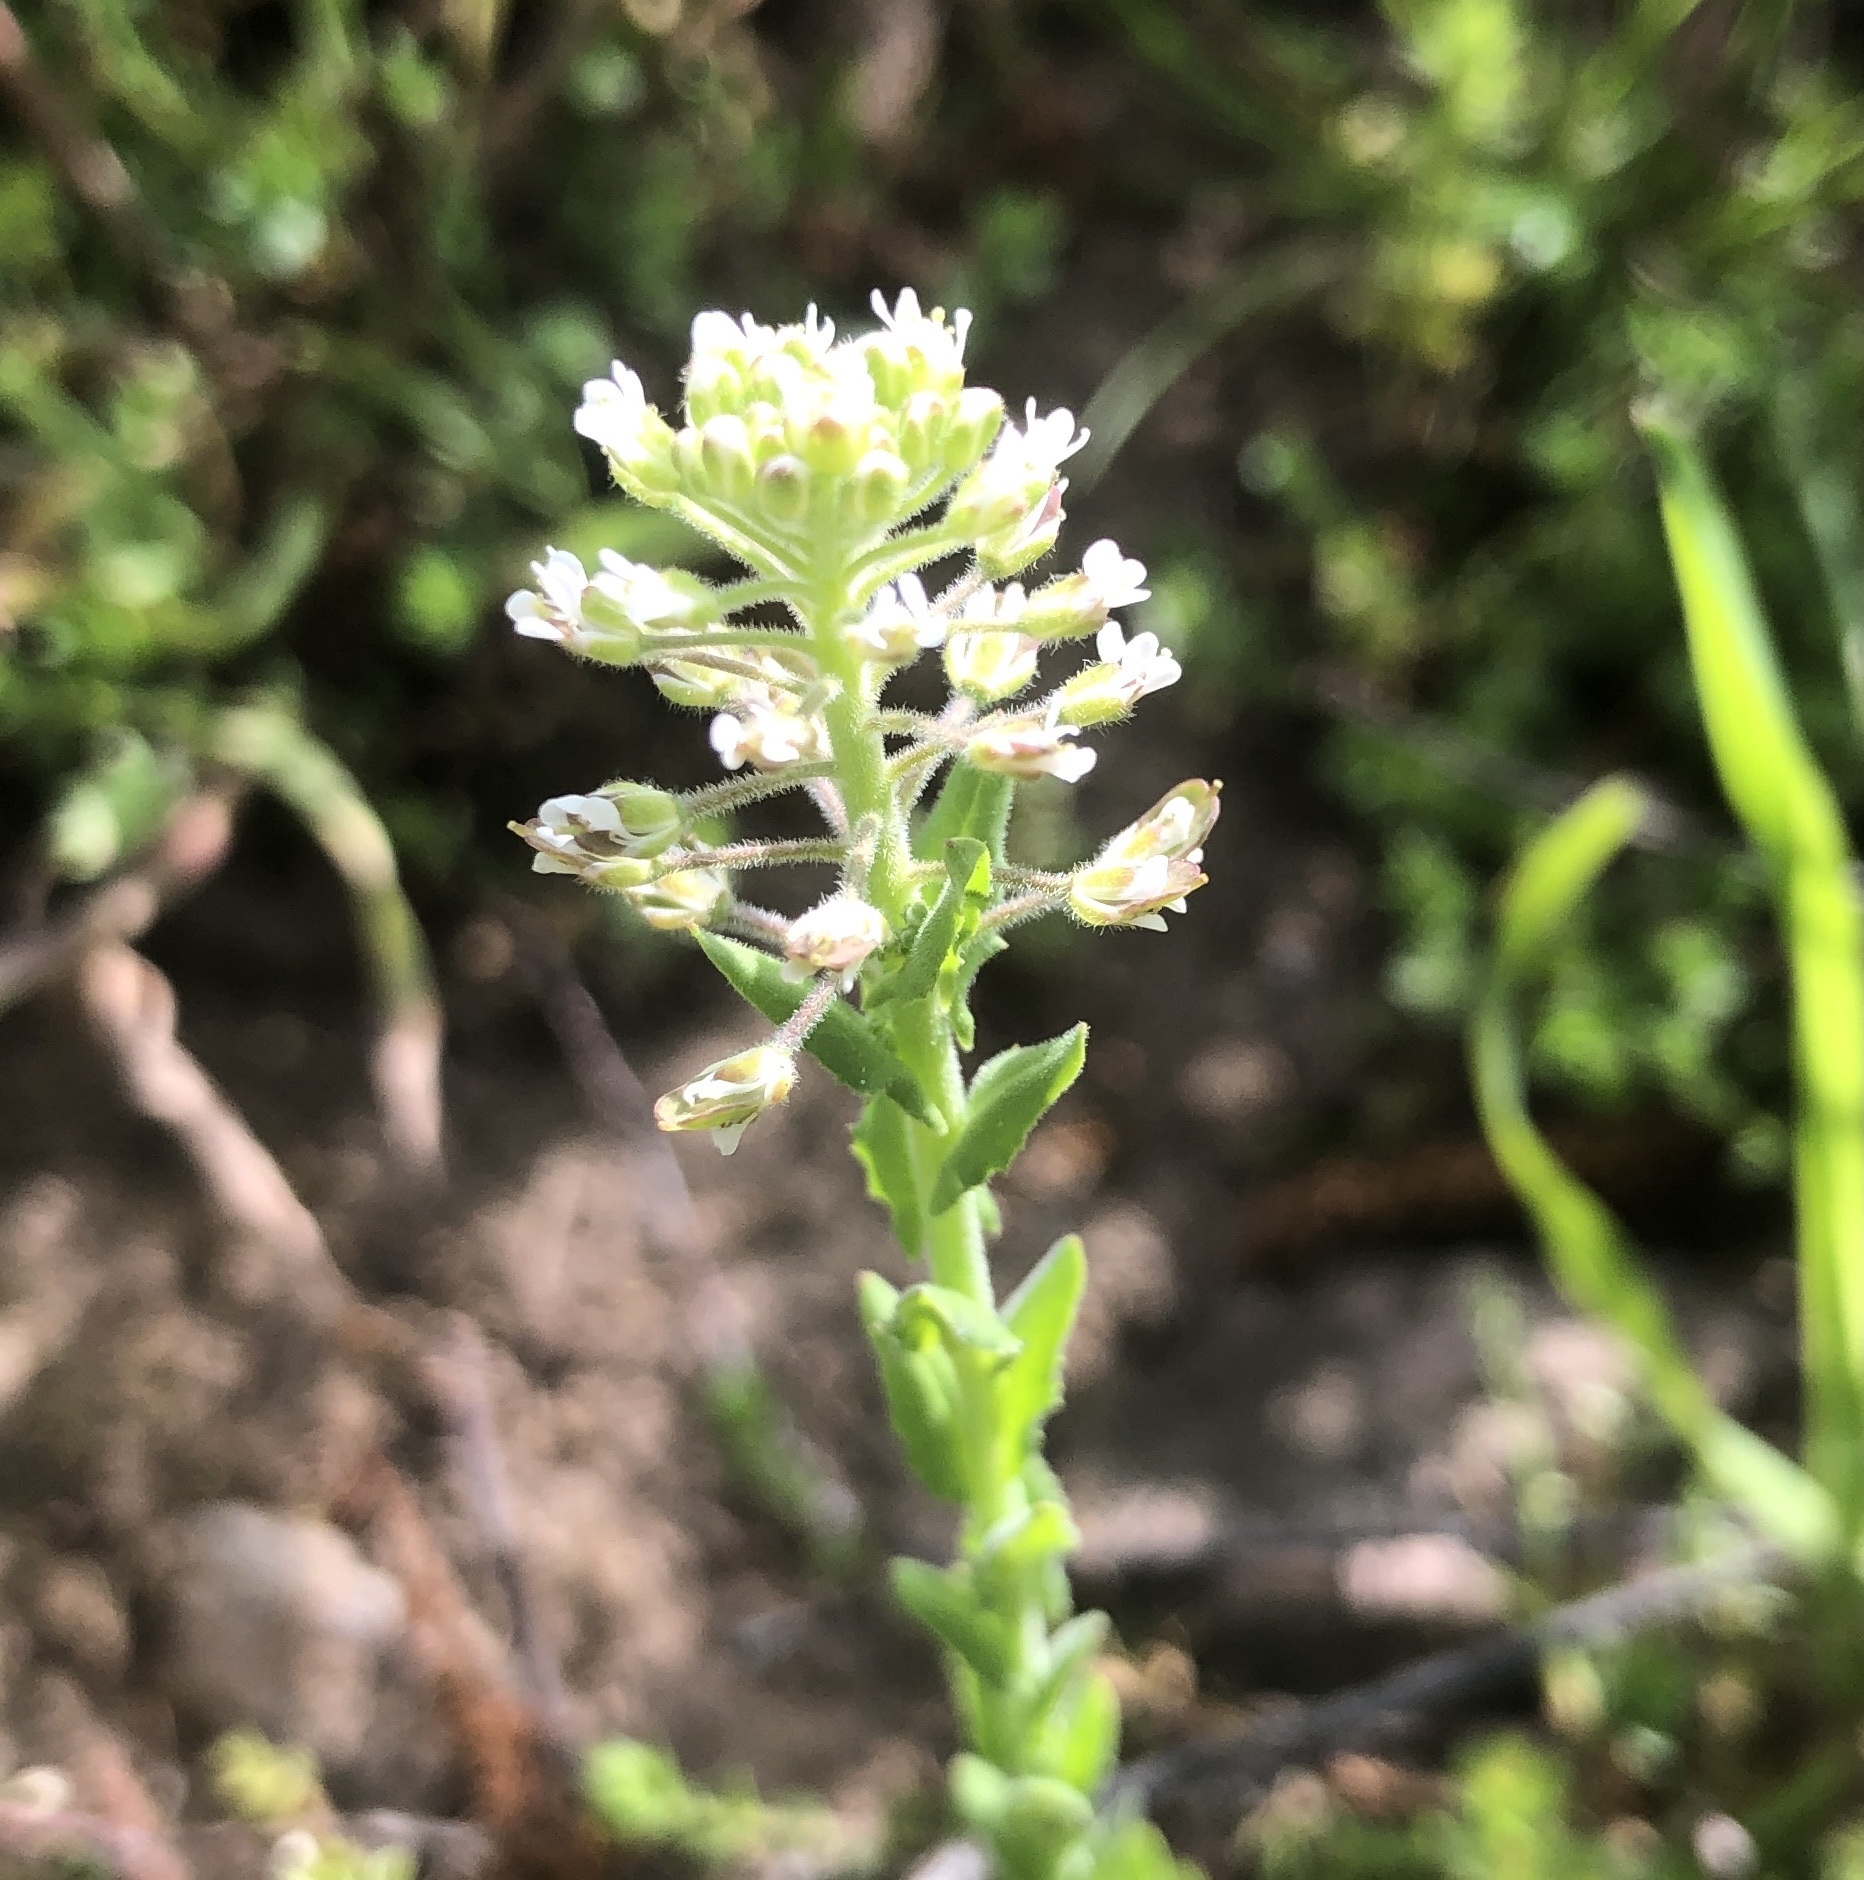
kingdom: Plantae
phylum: Tracheophyta
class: Magnoliopsida
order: Brassicales
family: Brassicaceae
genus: Lepidium
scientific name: Lepidium campestre
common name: Field pepperwort
